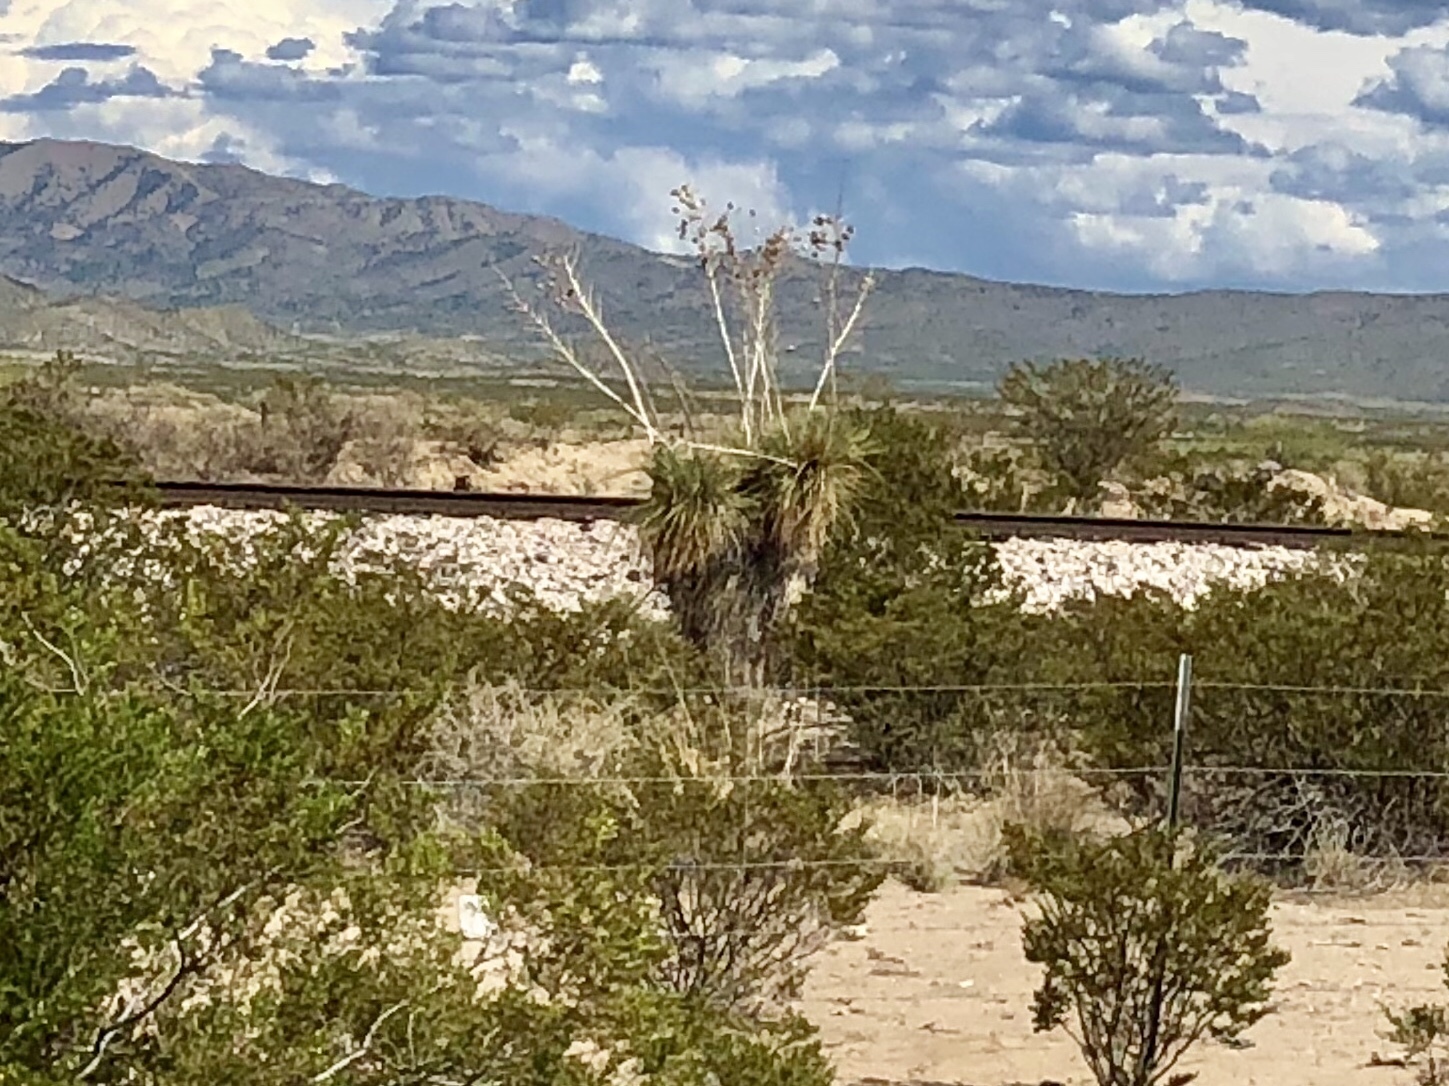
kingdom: Plantae
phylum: Tracheophyta
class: Liliopsida
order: Asparagales
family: Asparagaceae
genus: Yucca
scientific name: Yucca elata
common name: Palmella
